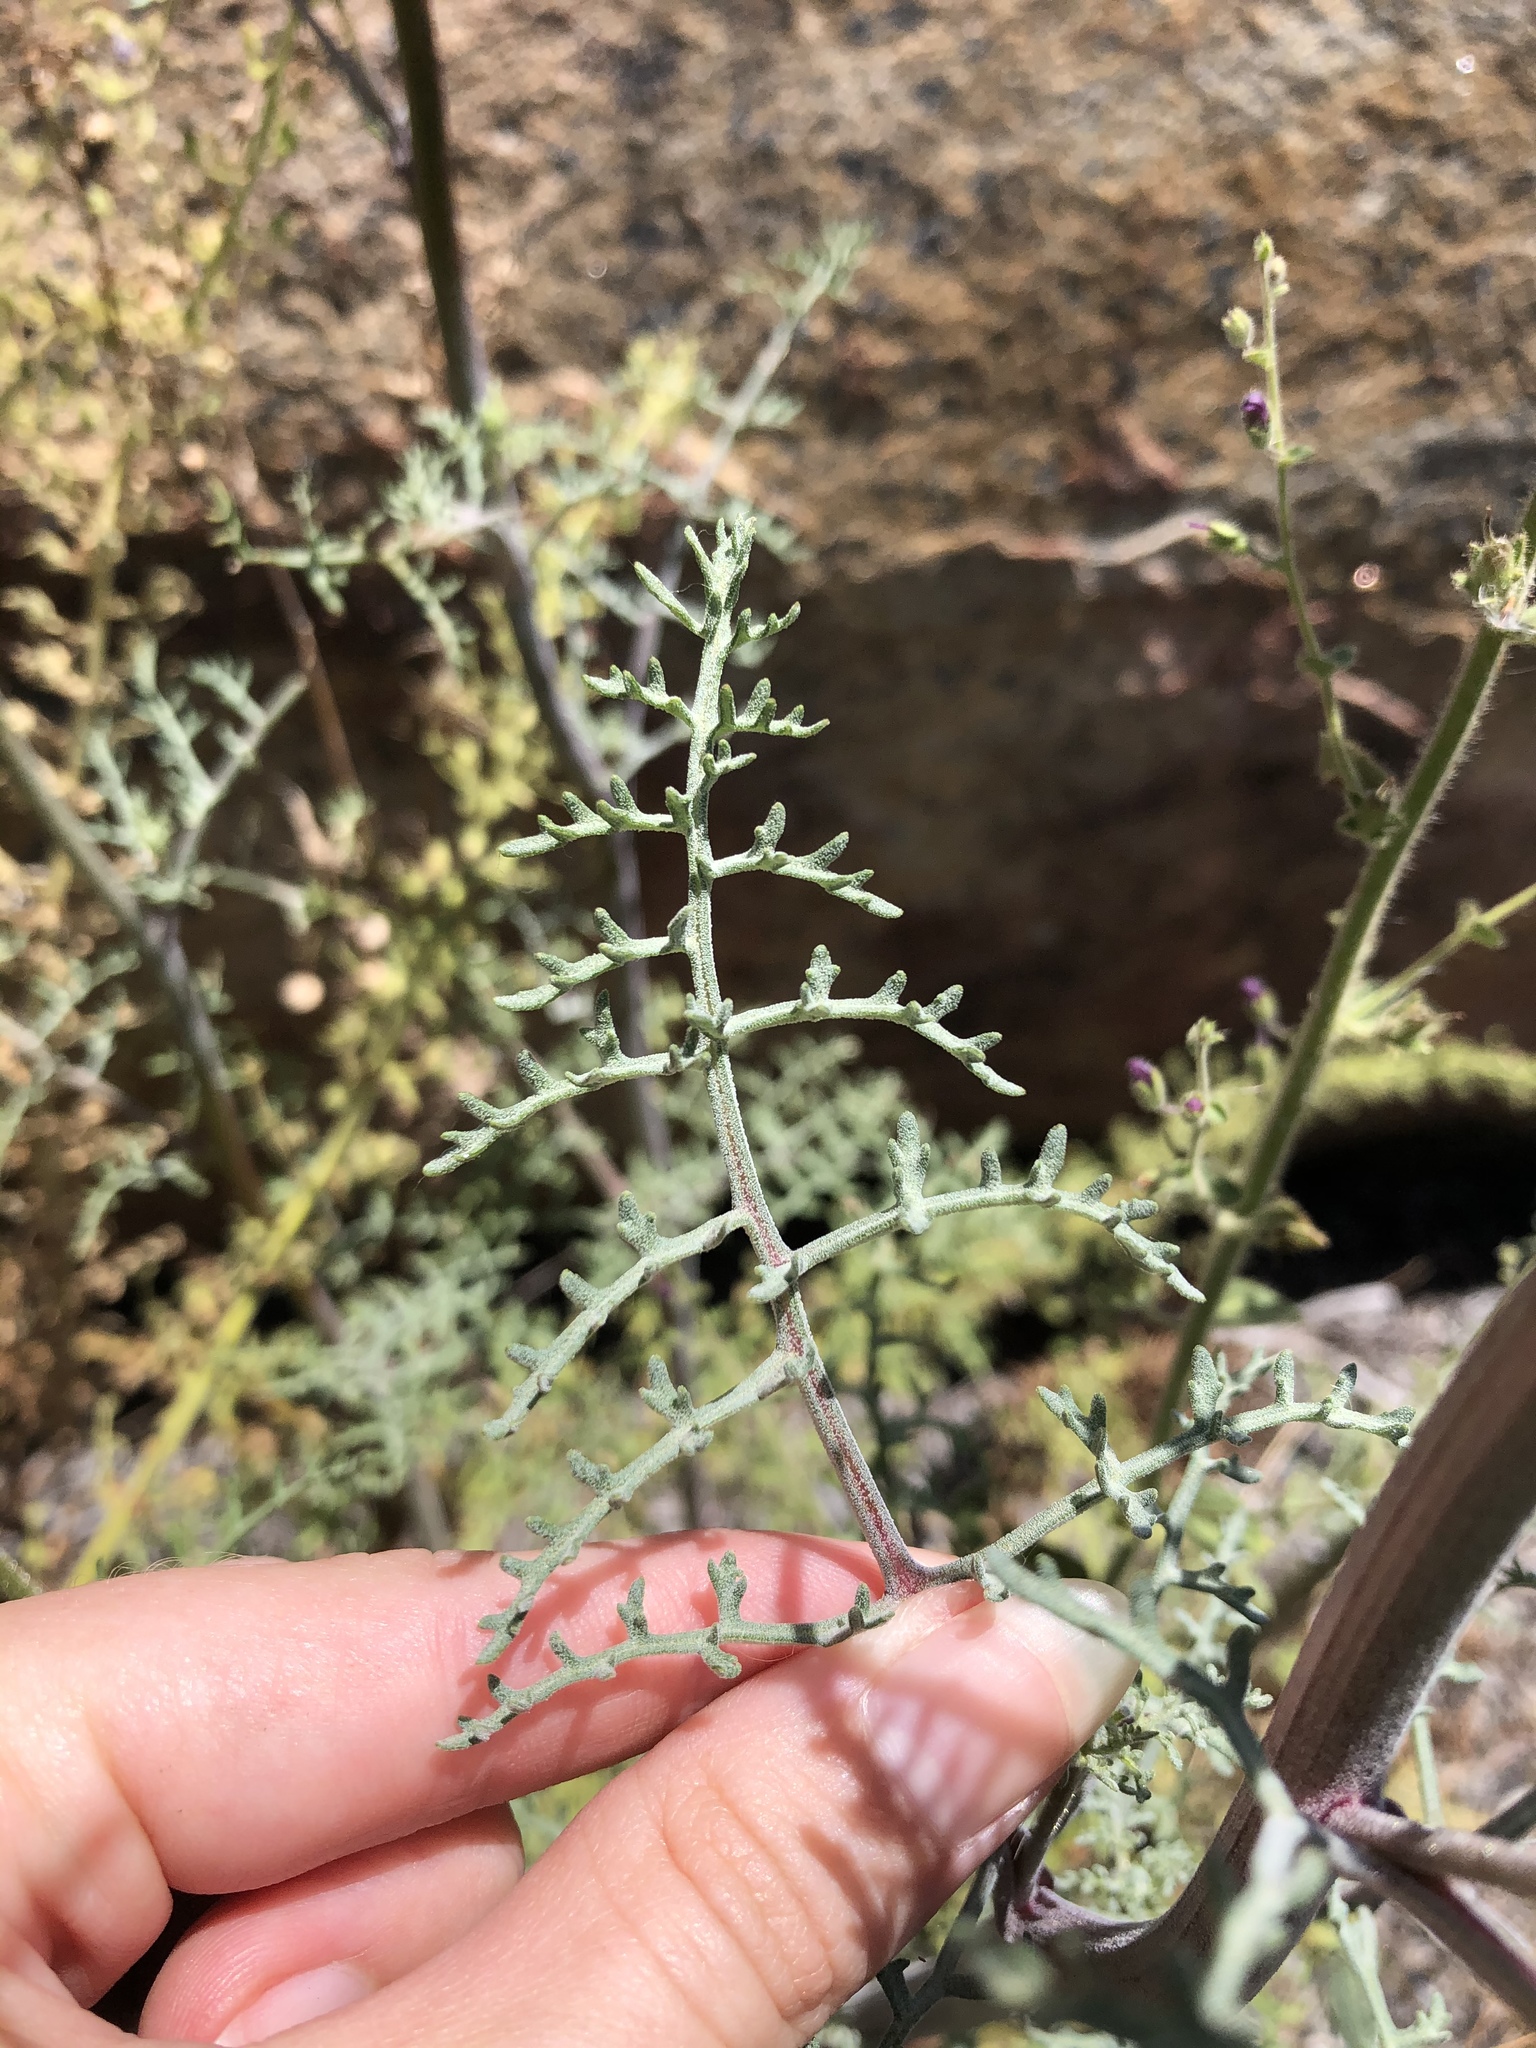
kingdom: Plantae
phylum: Tracheophyta
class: Magnoliopsida
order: Asterales
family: Asteraceae
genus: Chaenactis
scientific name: Chaenactis artemisiifolia
